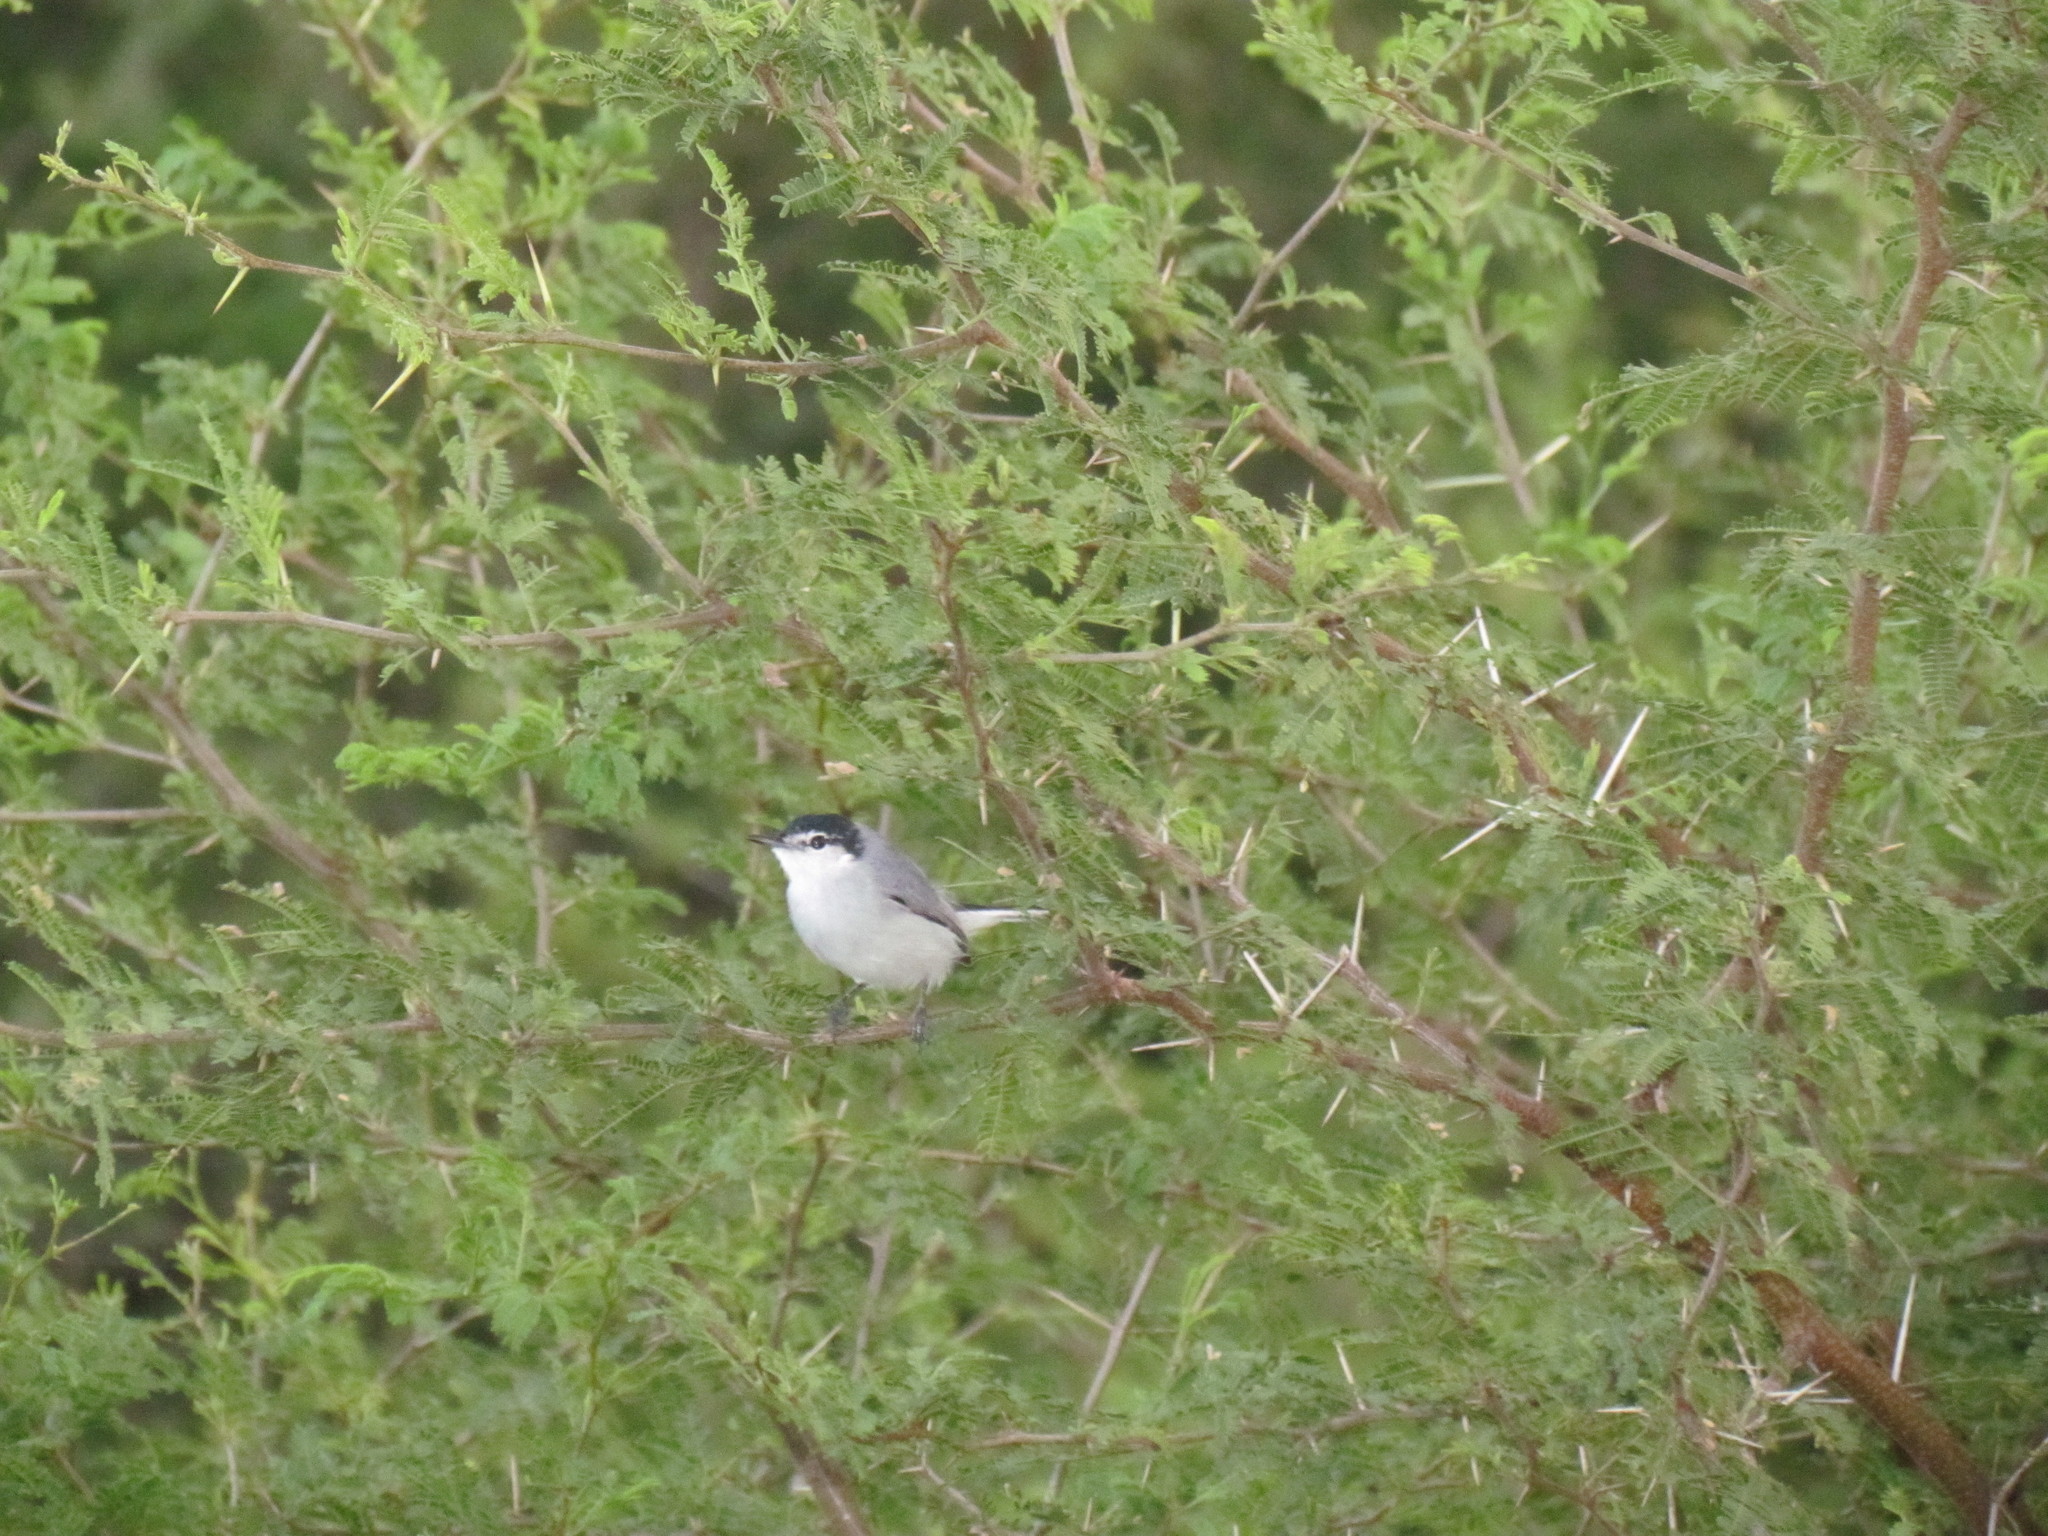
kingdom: Animalia
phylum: Chordata
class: Aves
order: Passeriformes
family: Polioptilidae
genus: Polioptila
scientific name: Polioptila albiloris
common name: White-lored gnatcatcher
